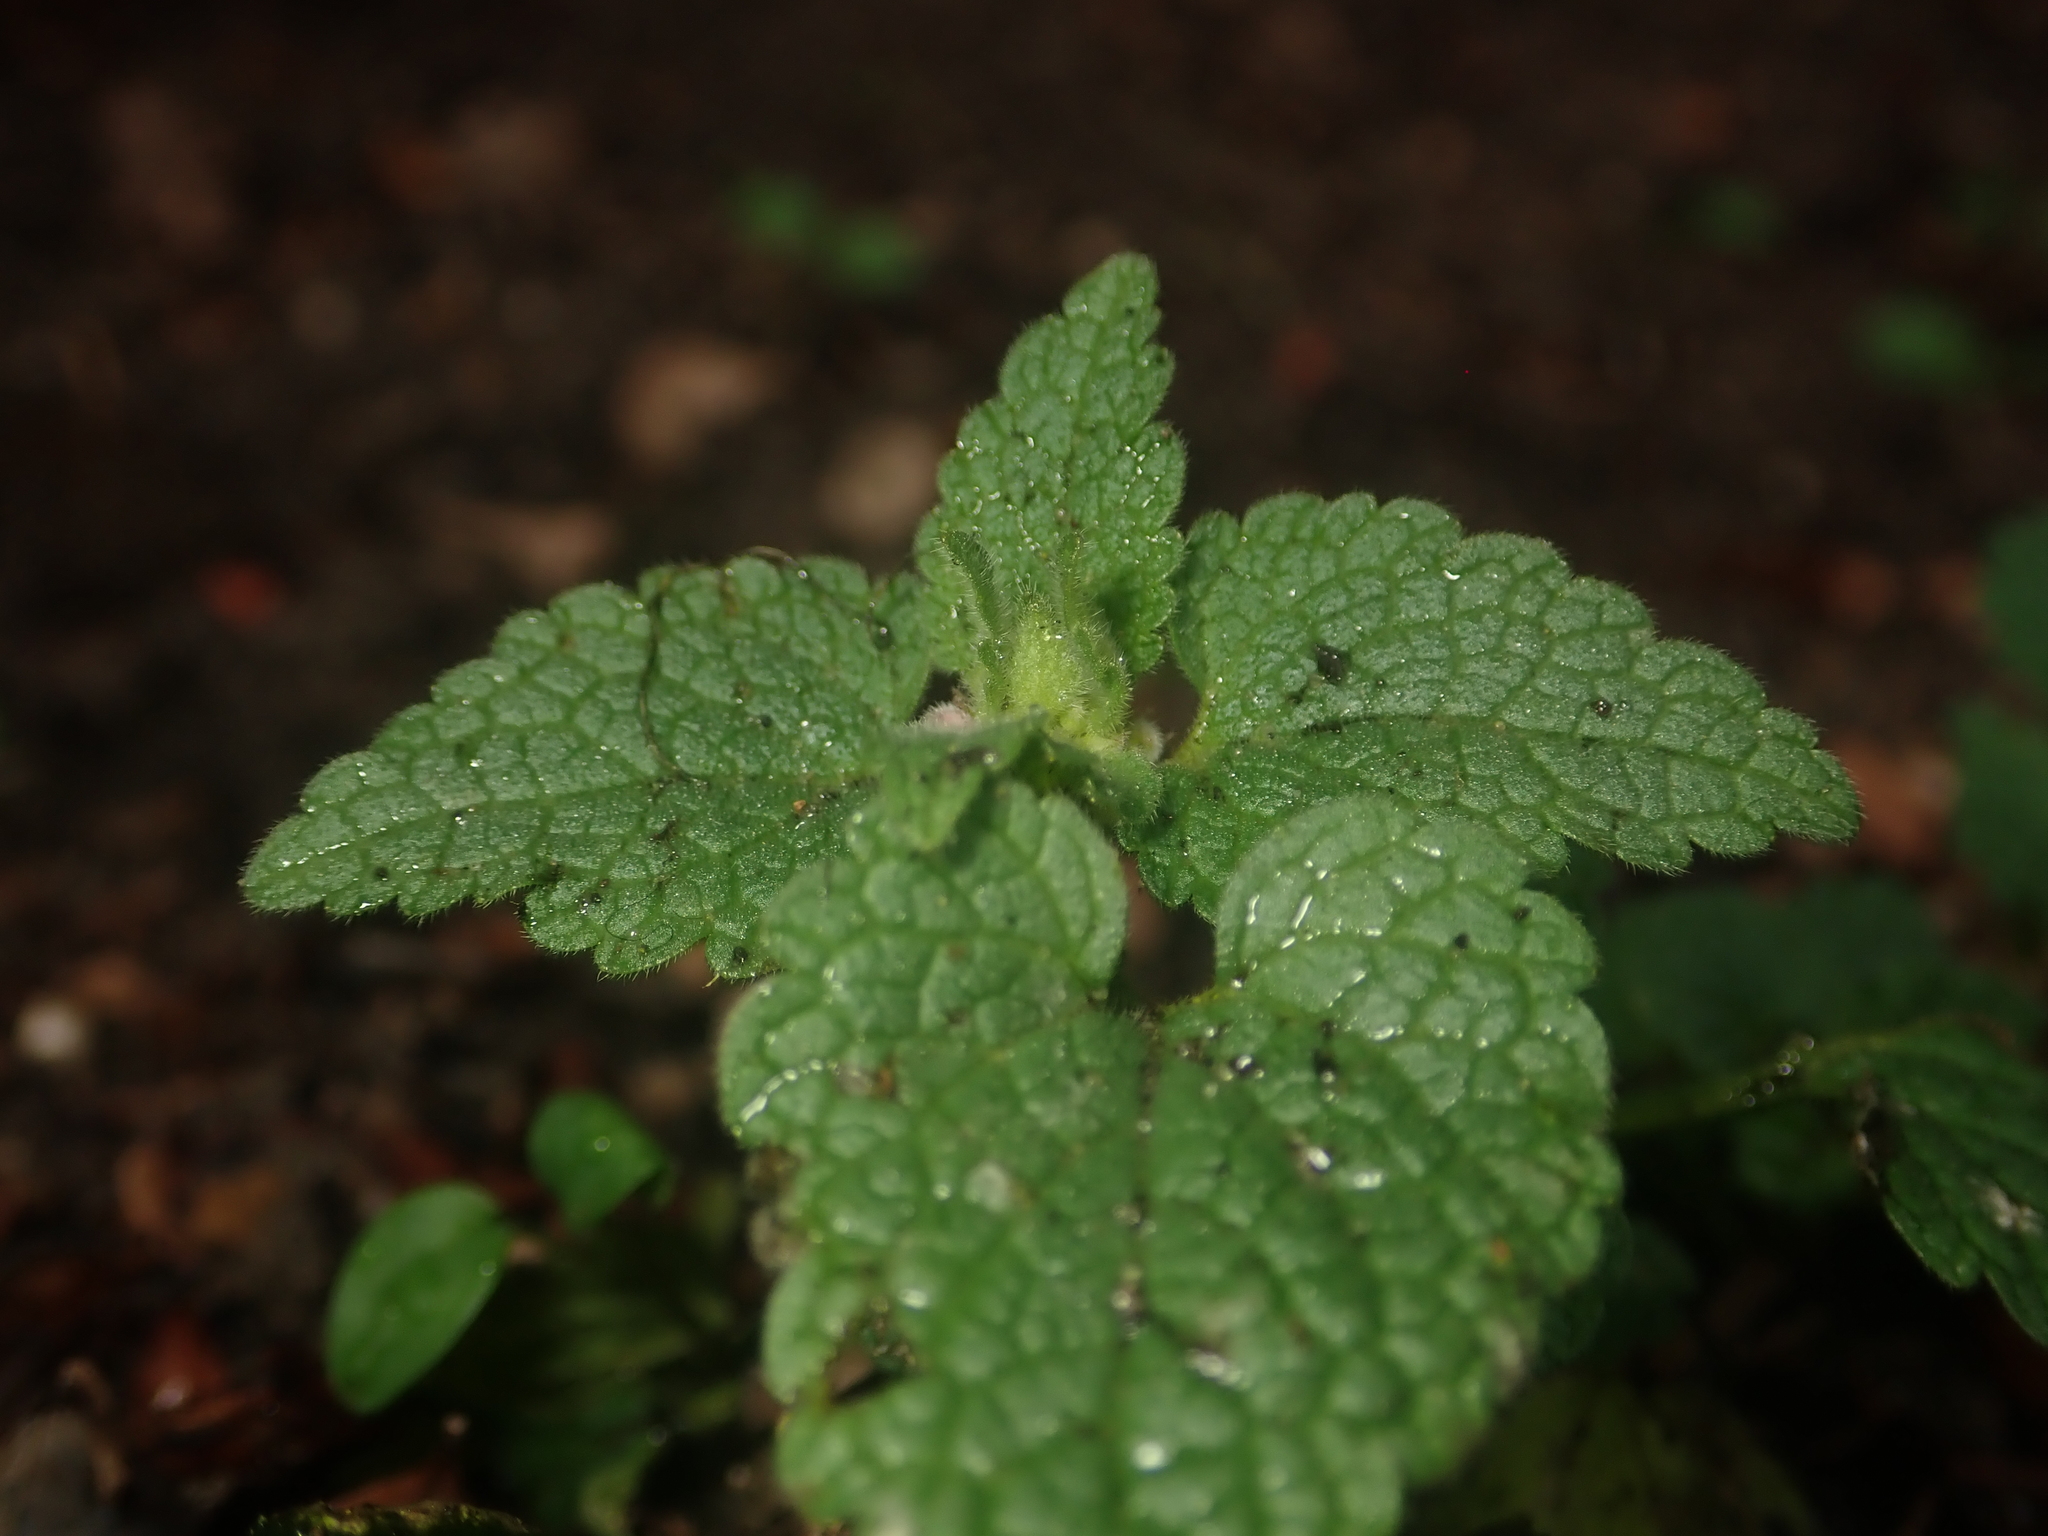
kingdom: Plantae
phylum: Tracheophyta
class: Magnoliopsida
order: Lamiales
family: Lamiaceae
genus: Lamium
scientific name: Lamium purpureum
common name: Red dead-nettle
